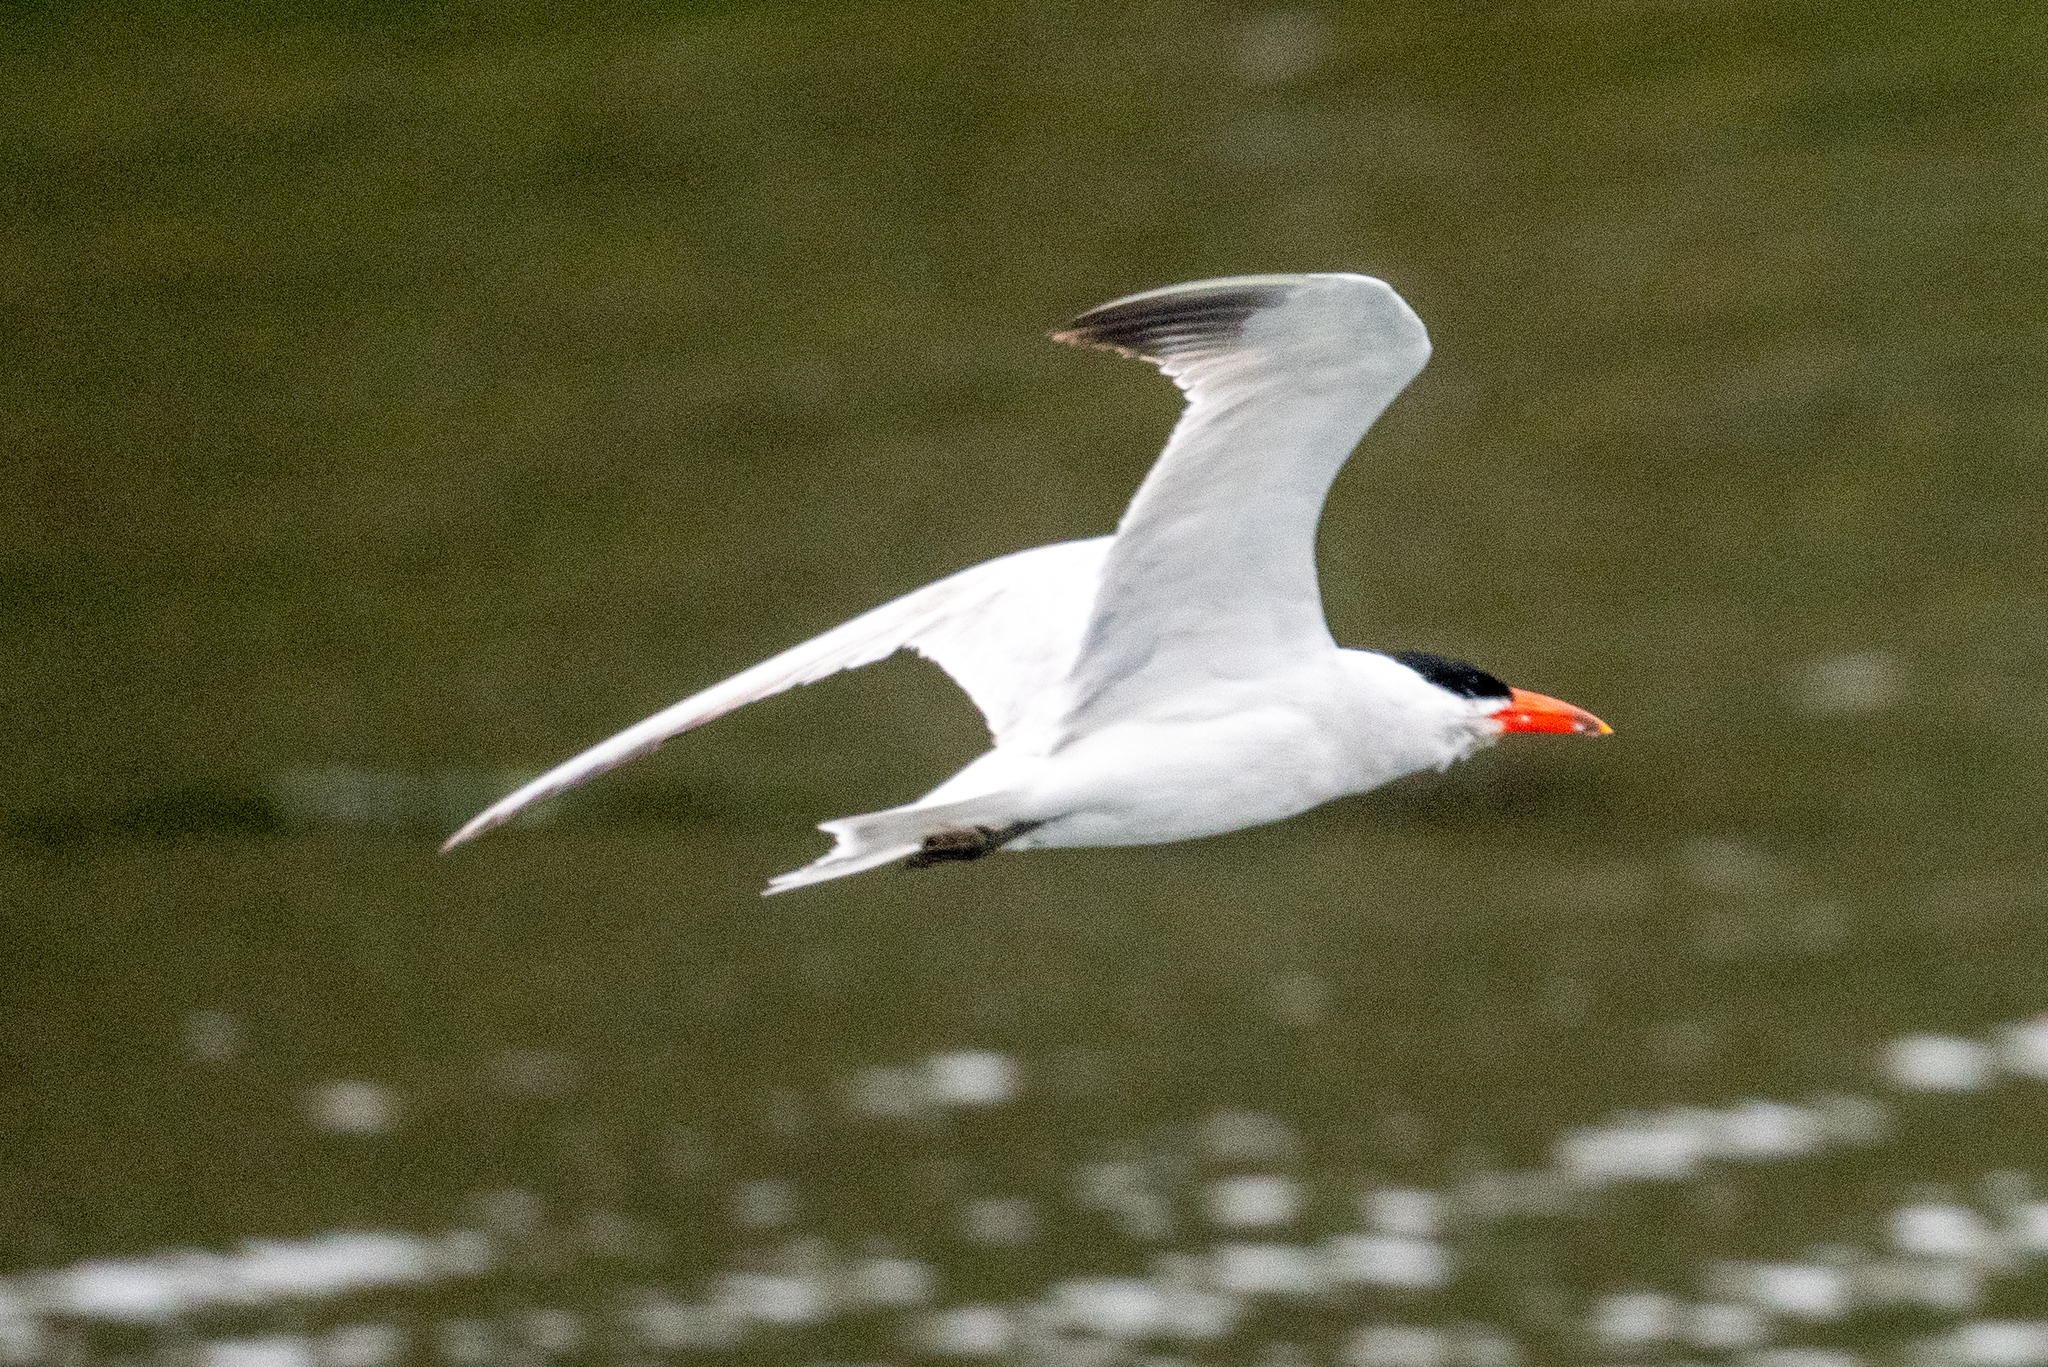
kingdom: Animalia
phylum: Chordata
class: Aves
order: Charadriiformes
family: Laridae
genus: Hydroprogne
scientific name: Hydroprogne caspia
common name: Caspian tern
